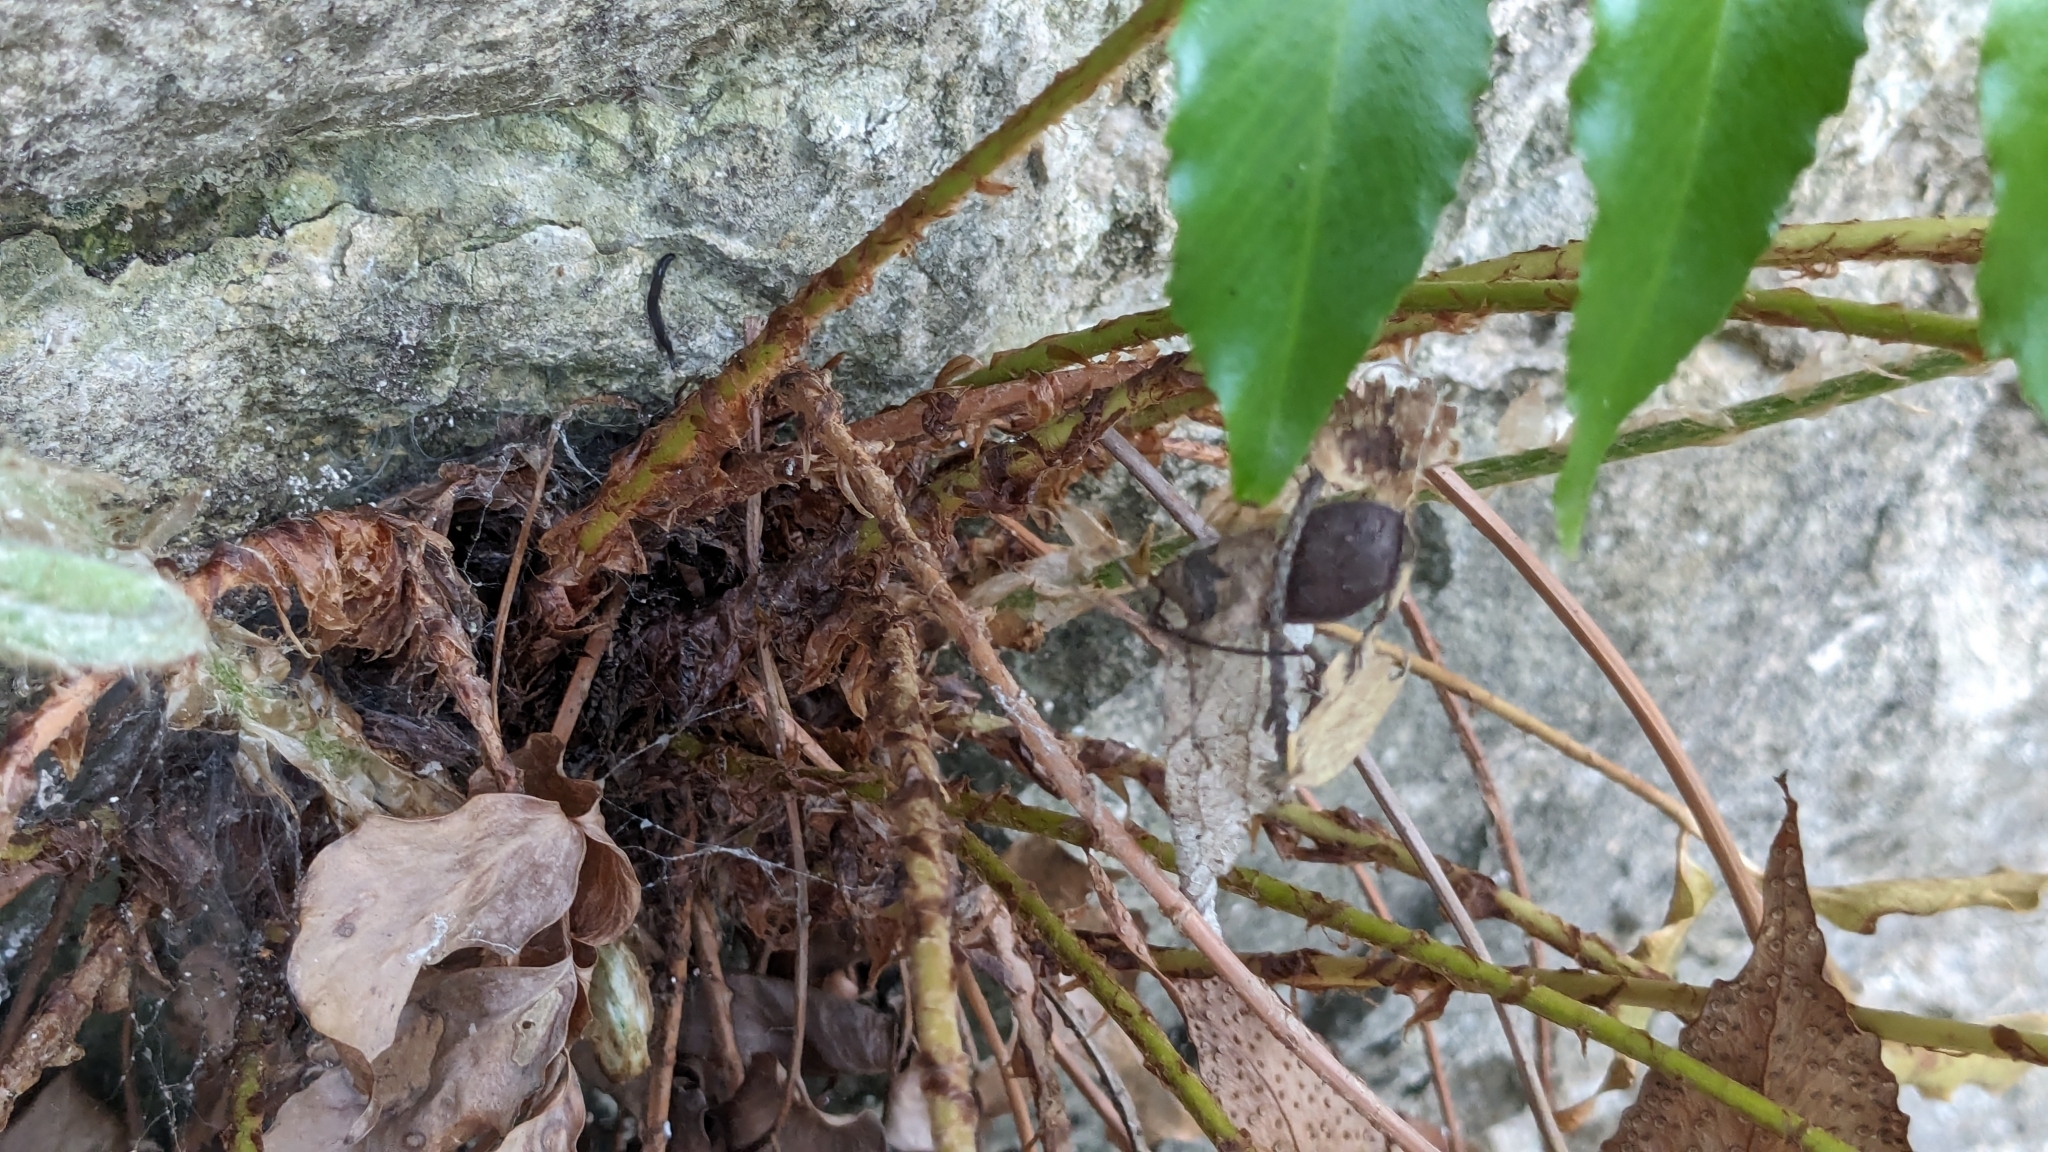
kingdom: Plantae
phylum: Tracheophyta
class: Polypodiopsida
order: Polypodiales
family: Dryopteridaceae
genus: Cyrtomium
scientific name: Cyrtomium falcatum
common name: House holly-fern
